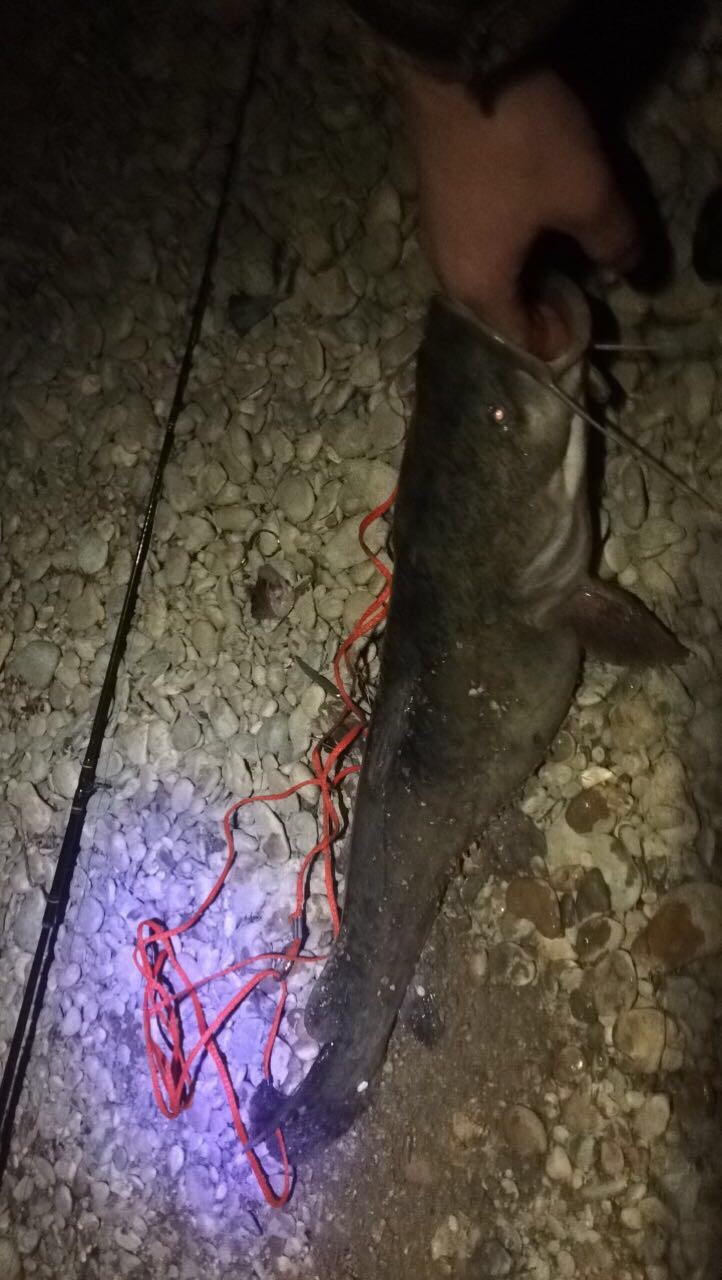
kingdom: Animalia
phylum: Chordata
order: Siluriformes
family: Ictaluridae
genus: Pylodictis
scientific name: Pylodictis olivaris
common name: Flathead catfish
